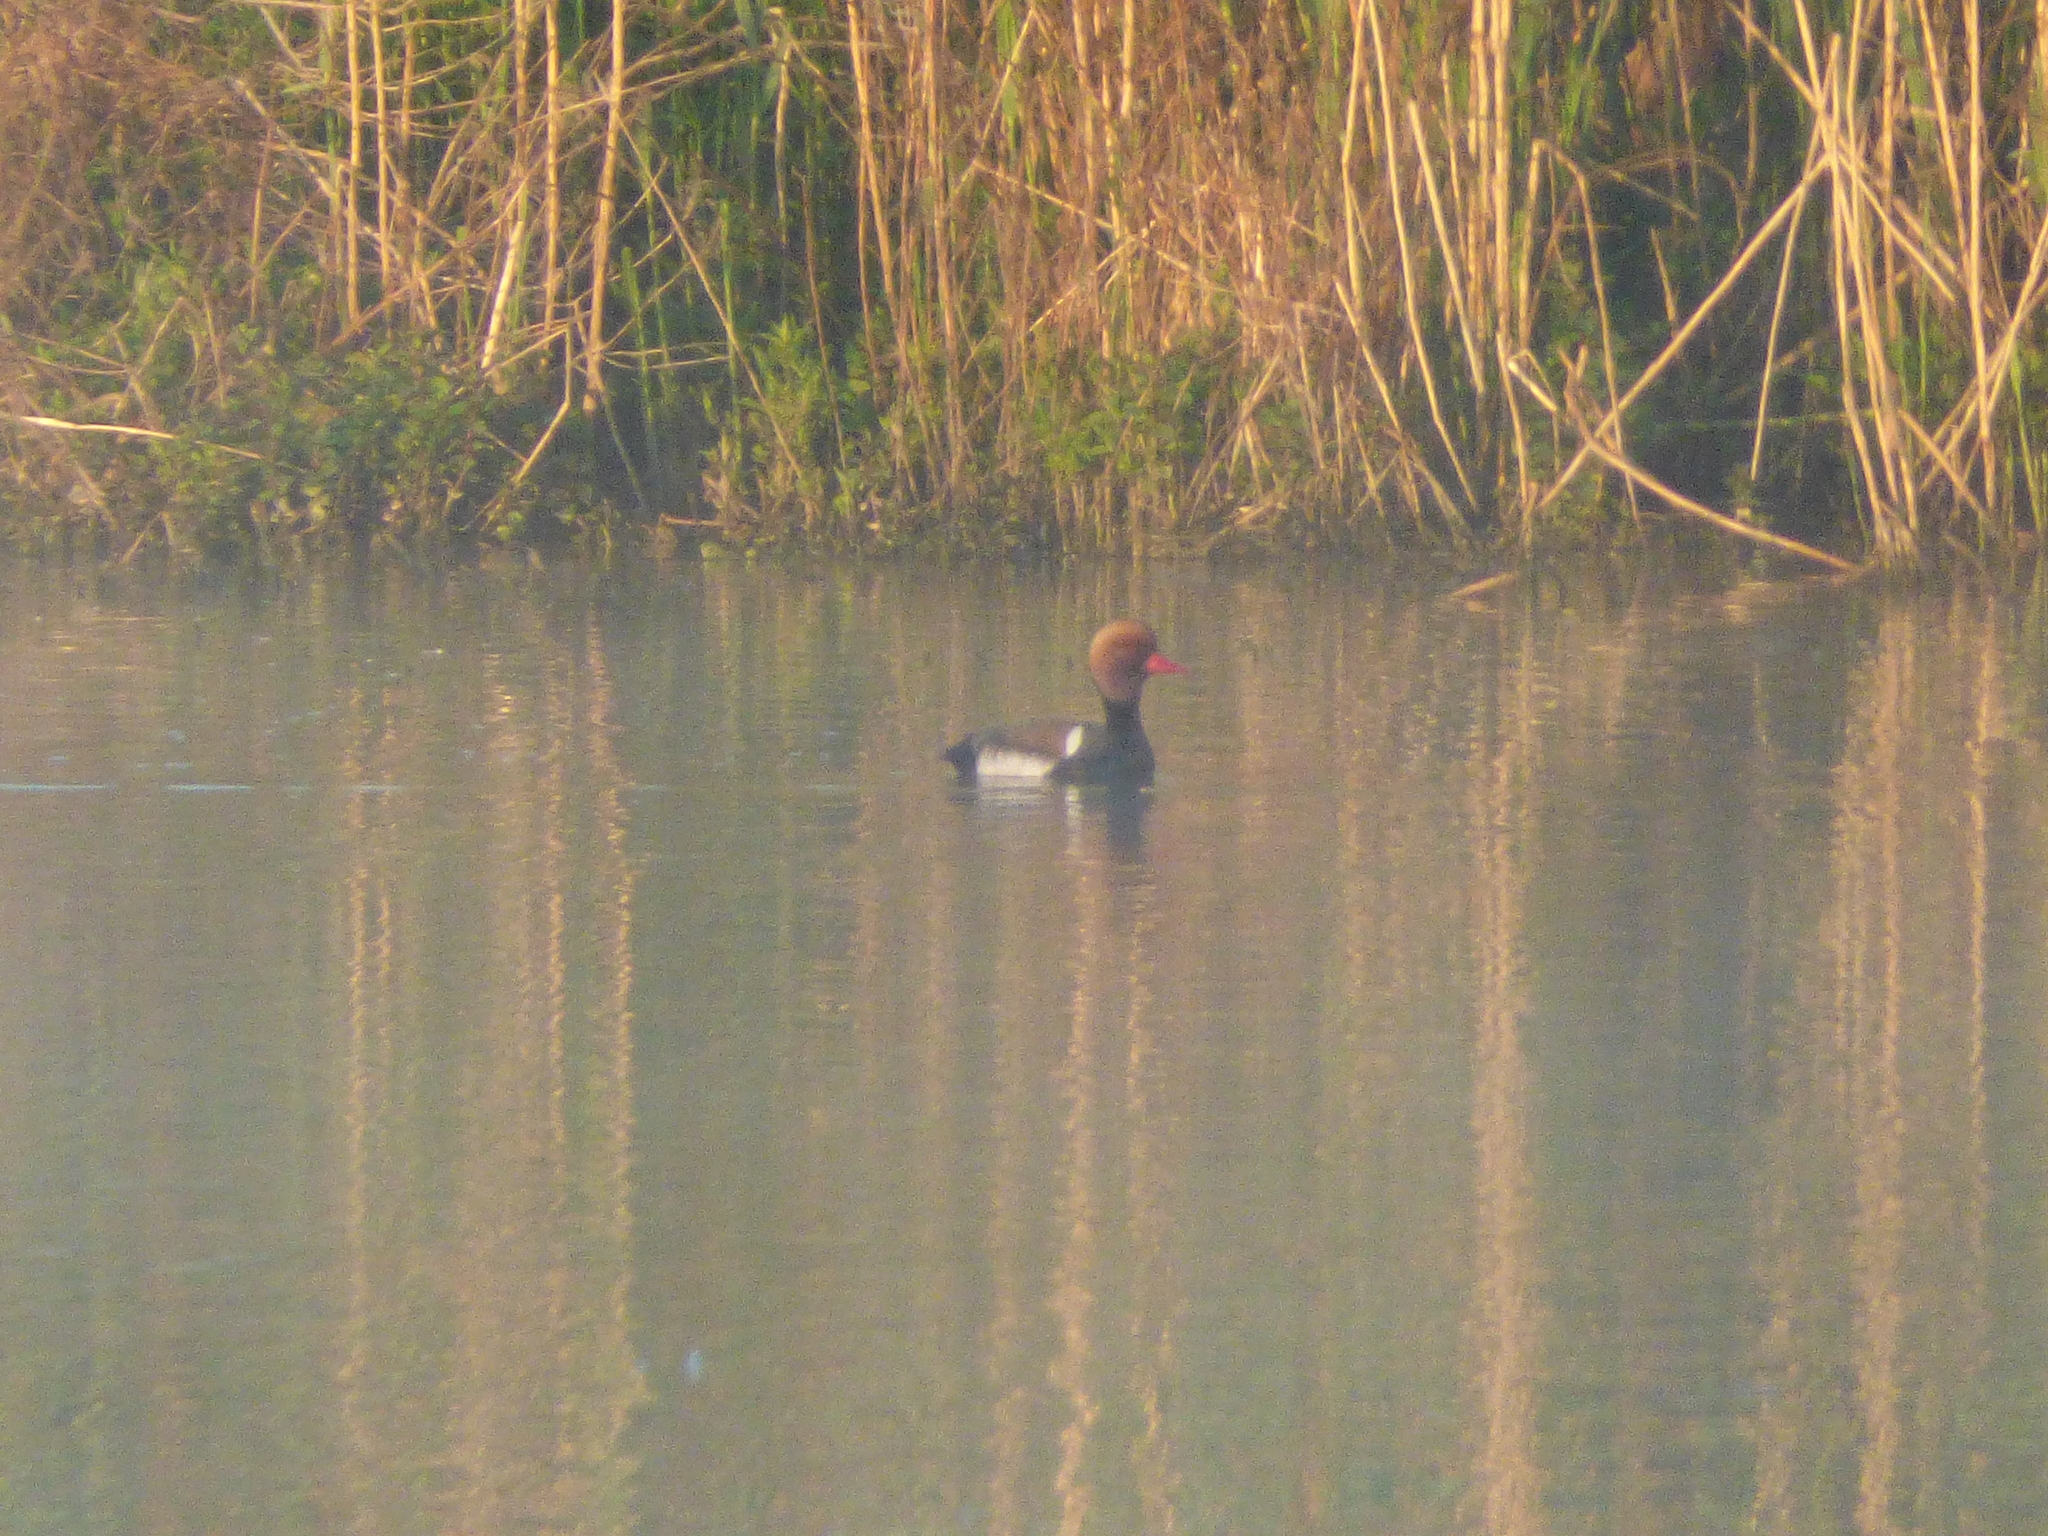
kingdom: Animalia
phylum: Chordata
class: Aves
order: Anseriformes
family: Anatidae
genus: Netta
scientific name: Netta rufina
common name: Red-crested pochard
